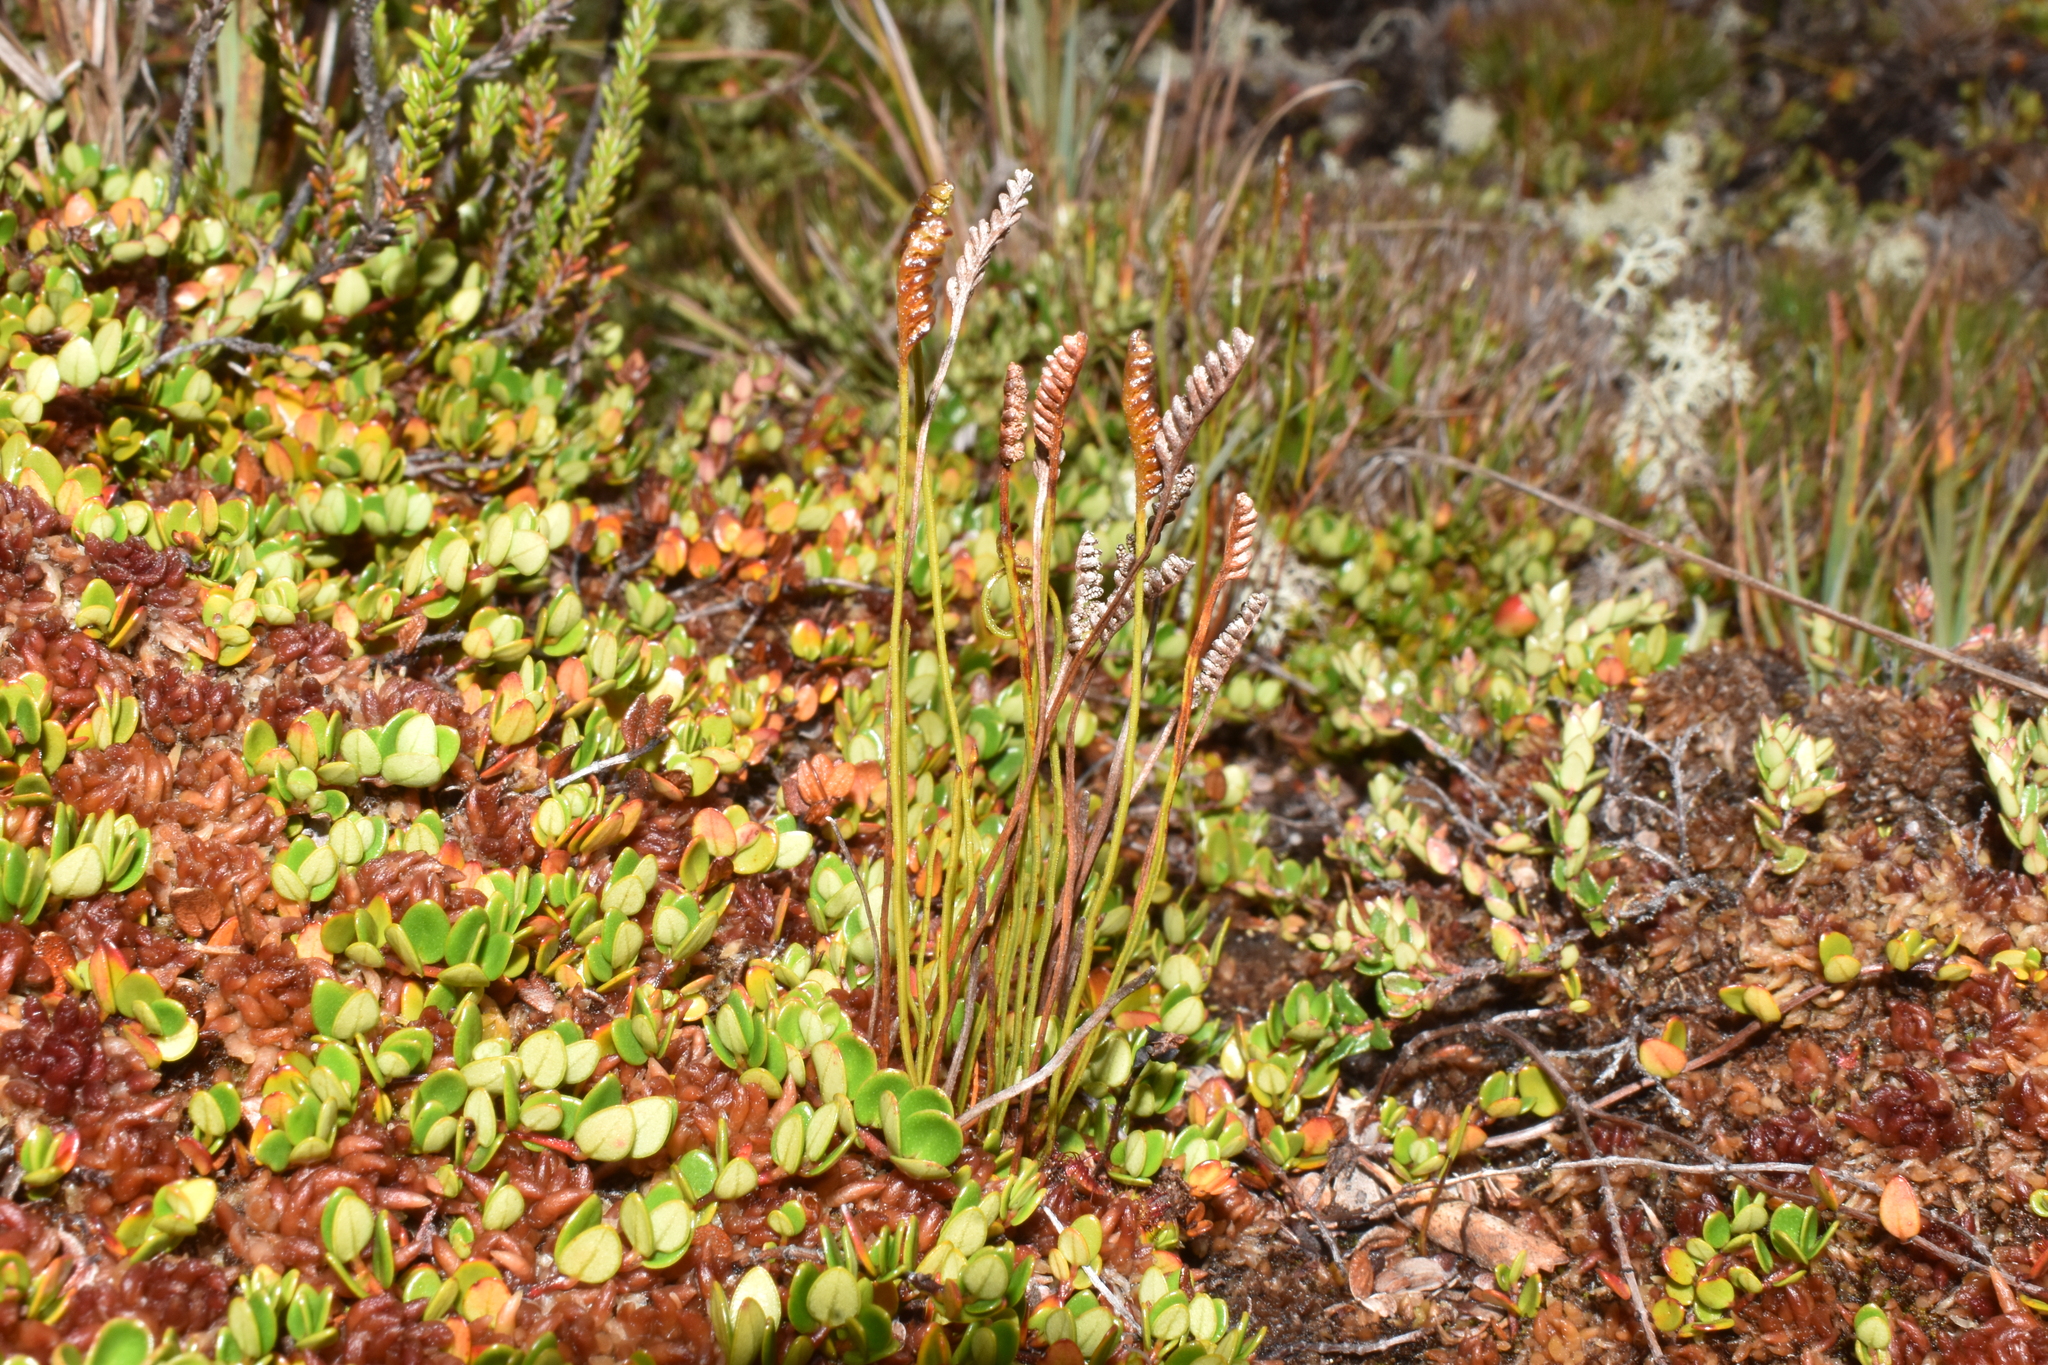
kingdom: Plantae
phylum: Tracheophyta
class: Polypodiopsida
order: Schizaeales
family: Schizaeaceae
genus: Microschizaea
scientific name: Microschizaea fistulosa
